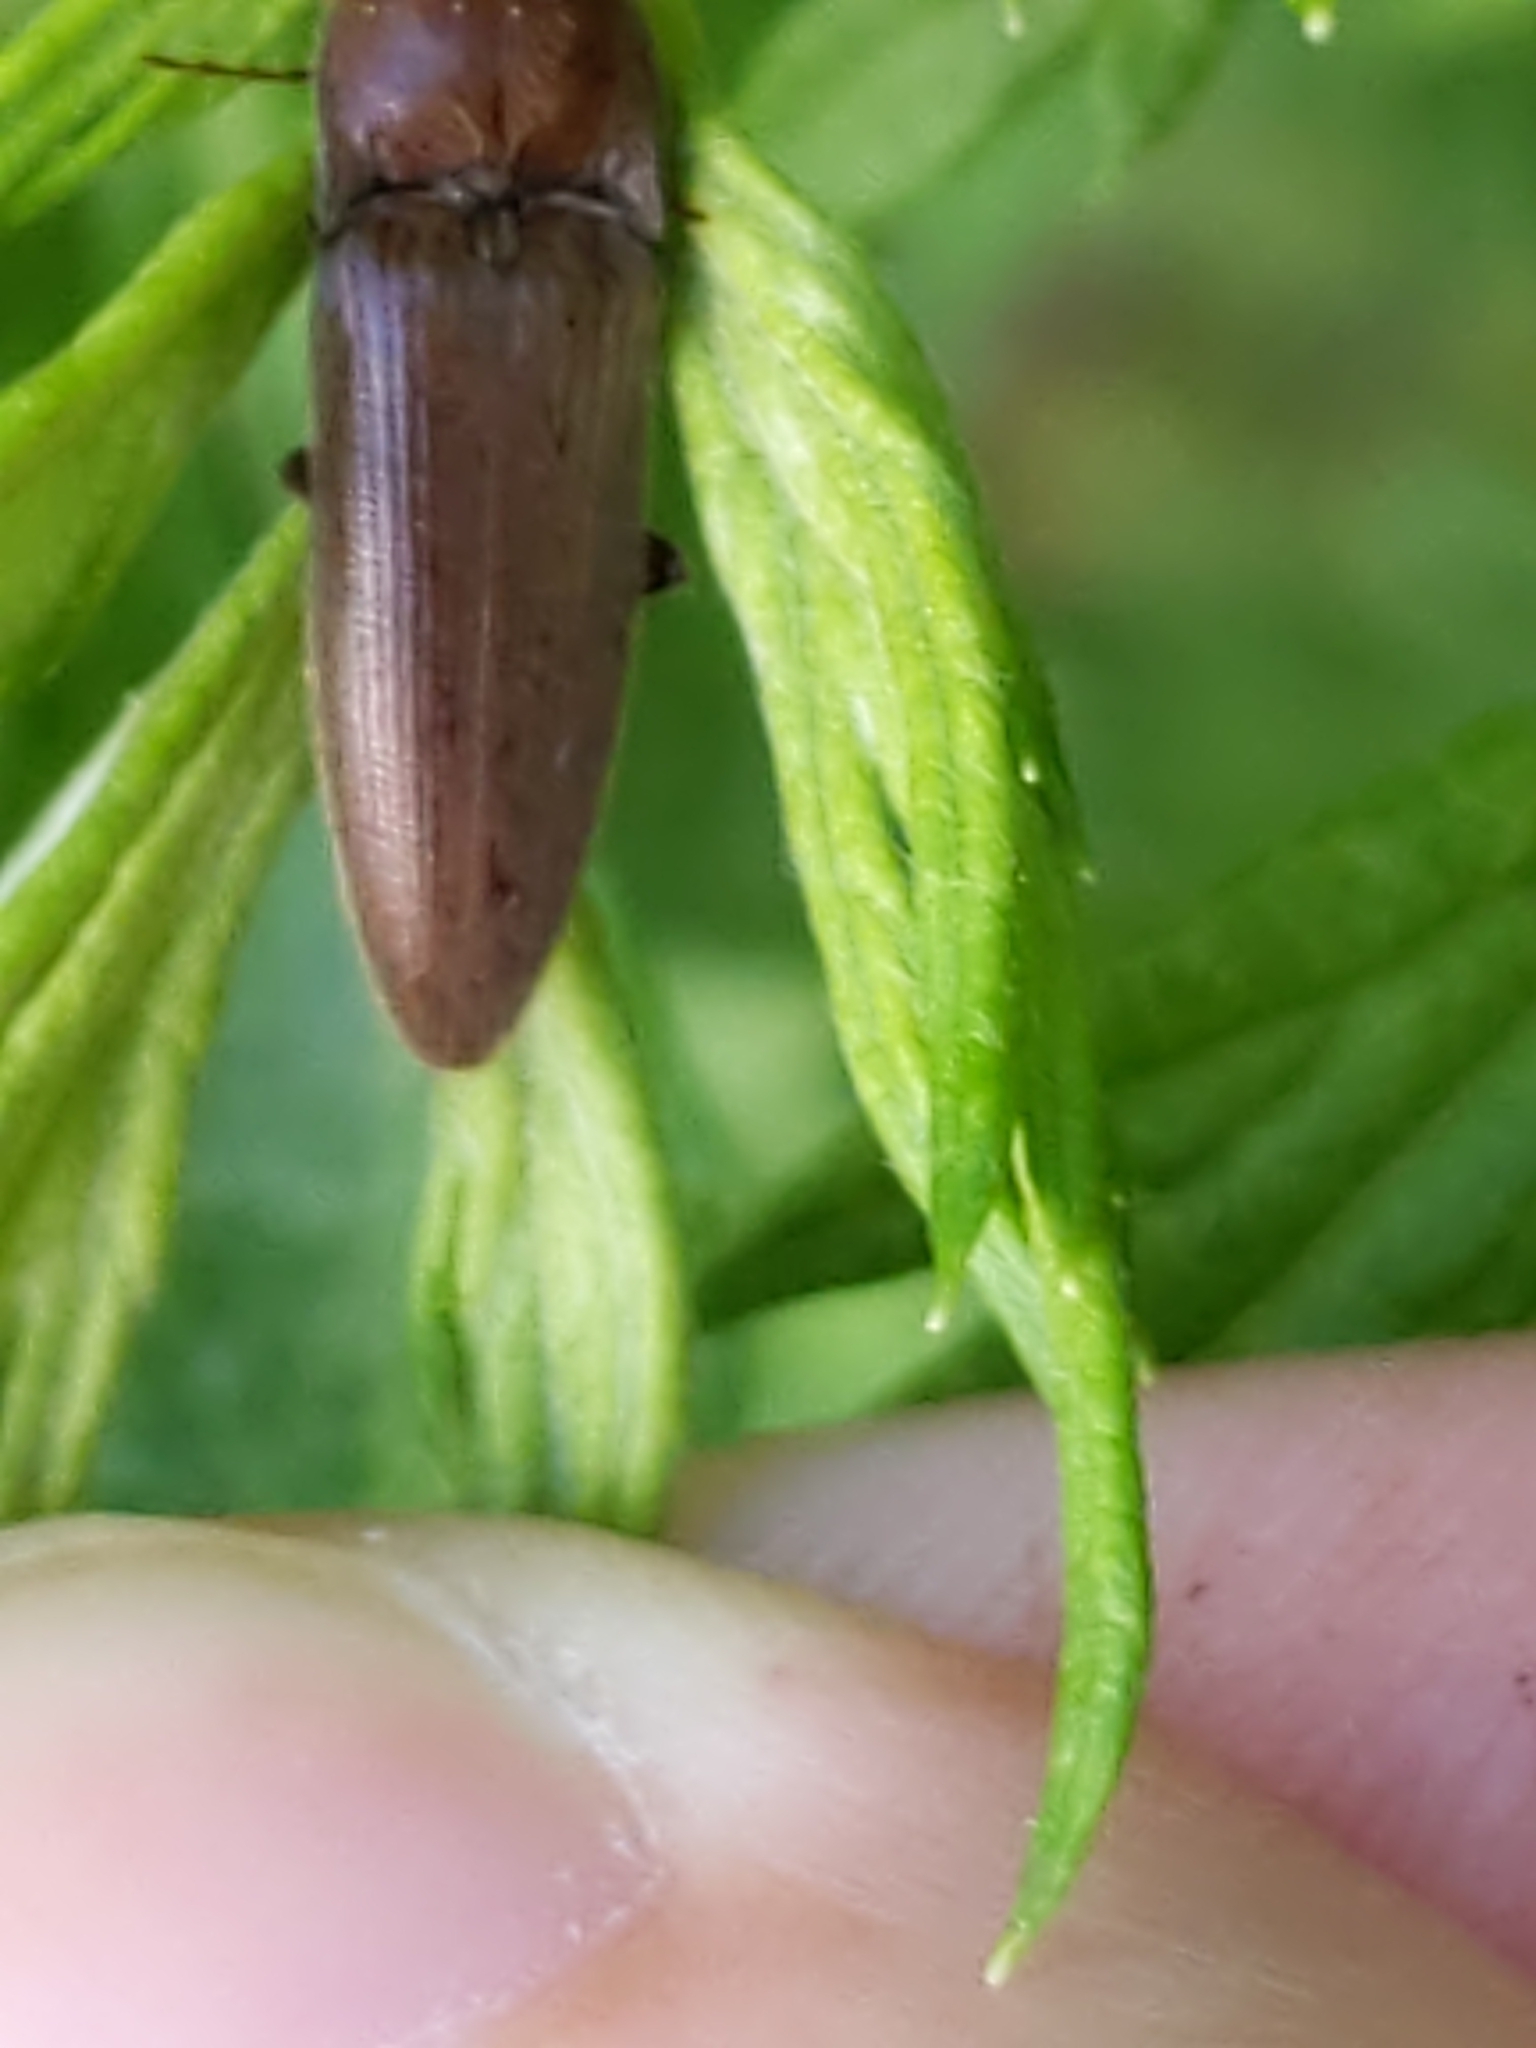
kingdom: Animalia
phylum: Arthropoda
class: Insecta
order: Coleoptera
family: Elateridae
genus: Melanotus
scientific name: Melanotus
